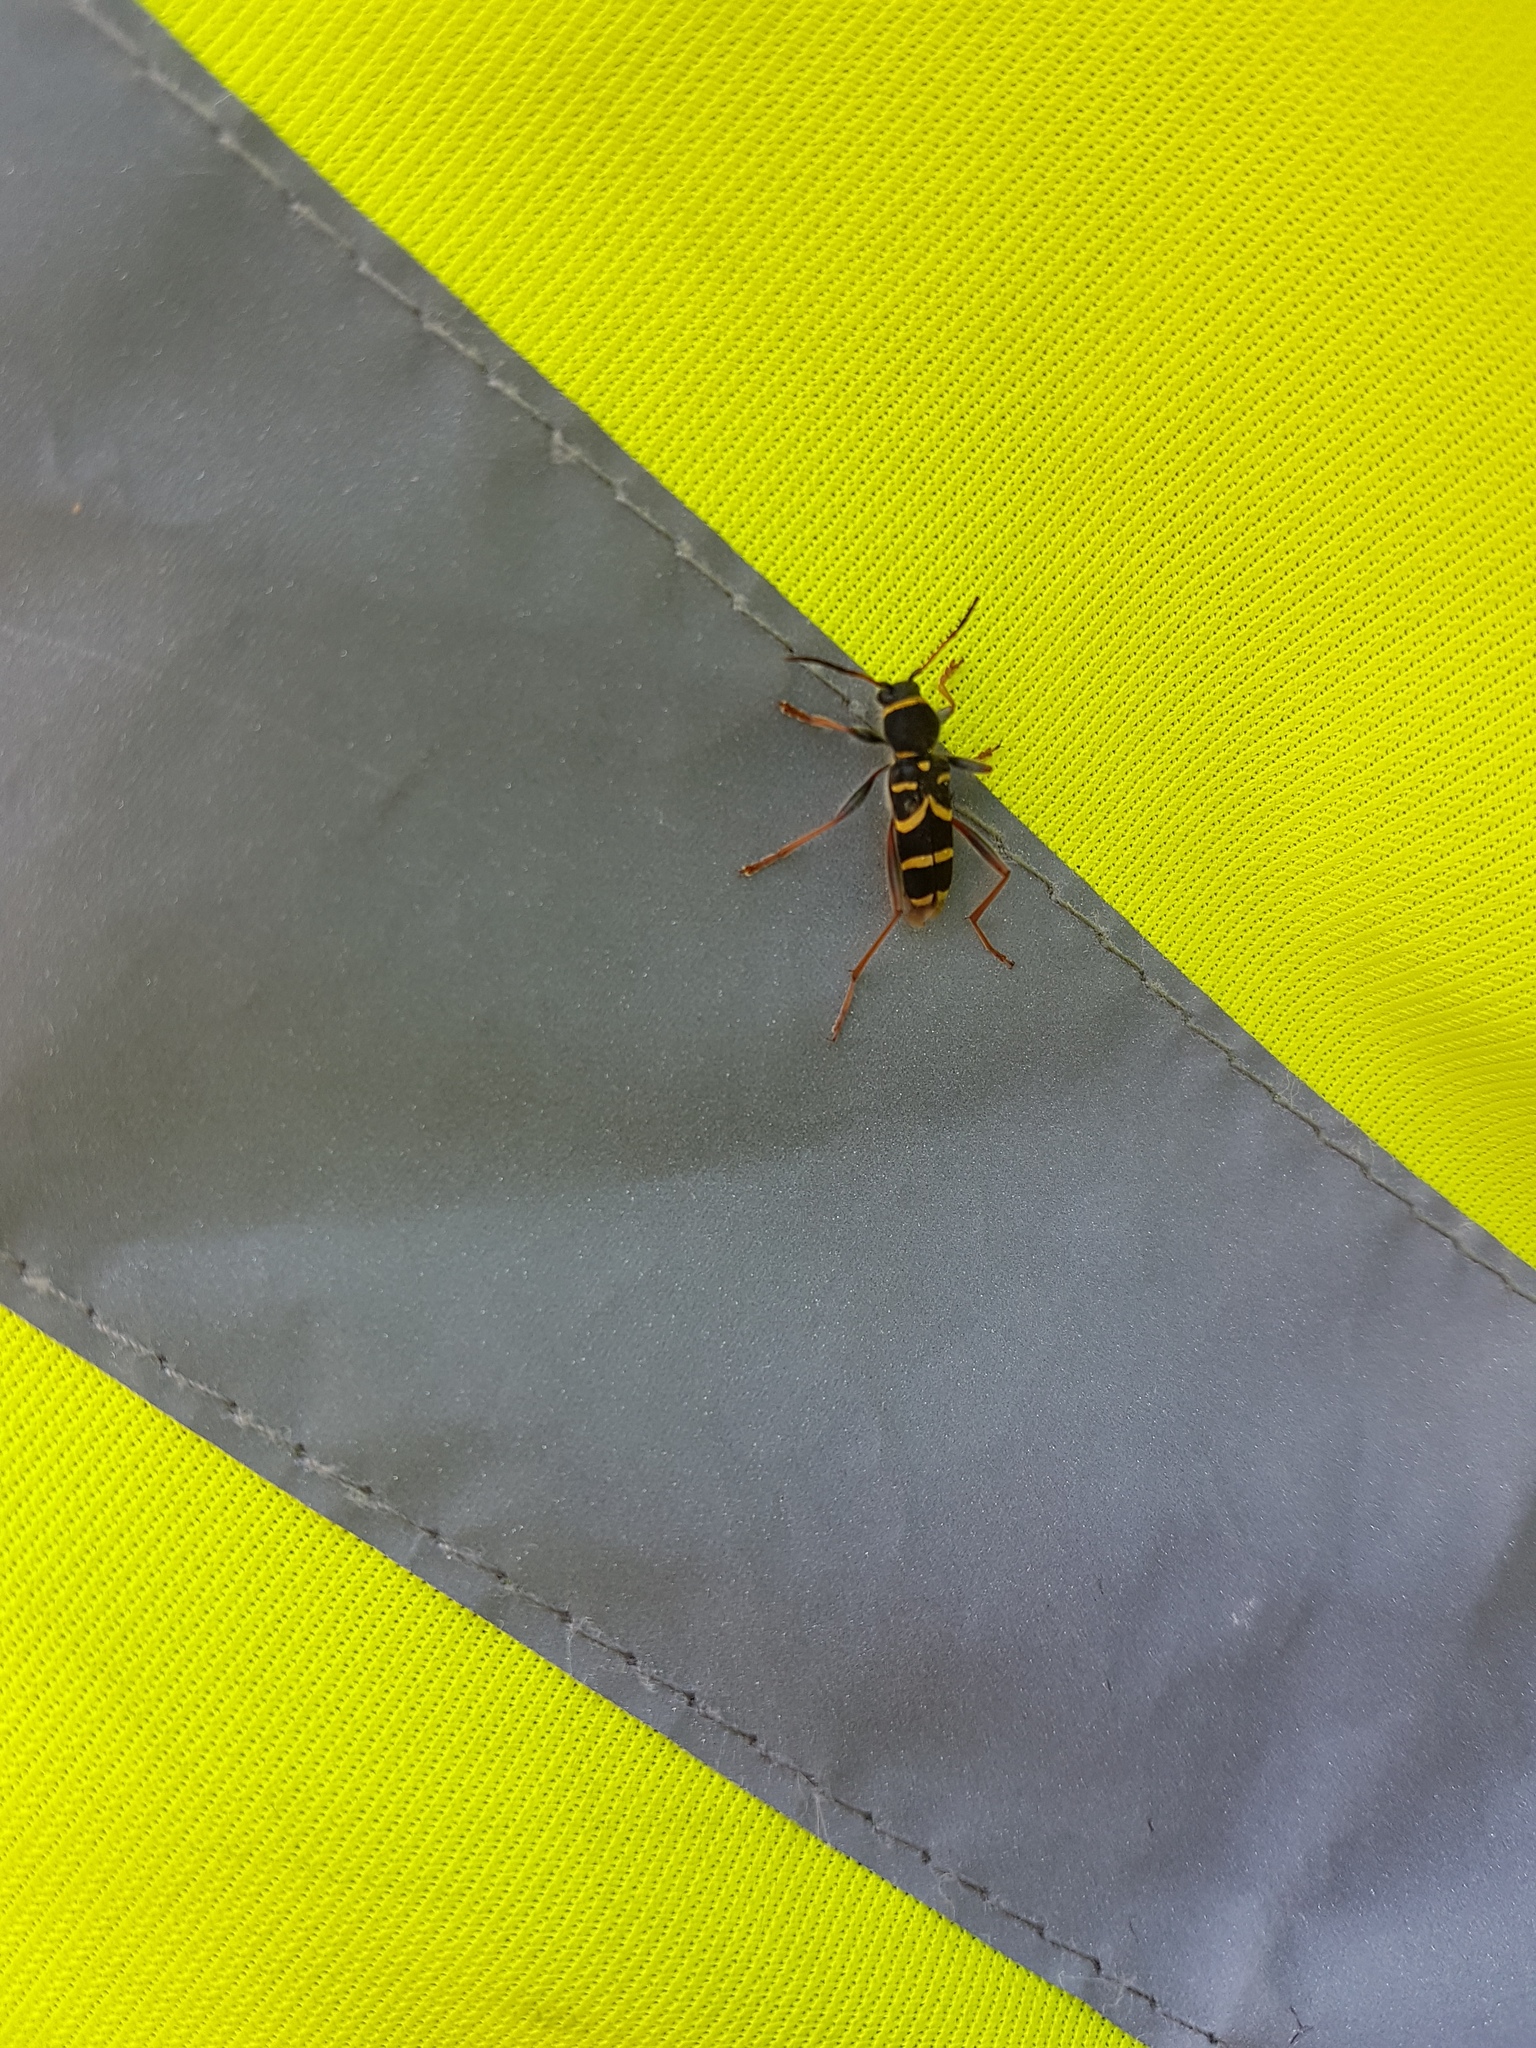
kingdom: Animalia
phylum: Arthropoda
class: Insecta
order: Coleoptera
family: Cerambycidae
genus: Clytus
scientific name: Clytus arietis
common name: Wasp beetle
